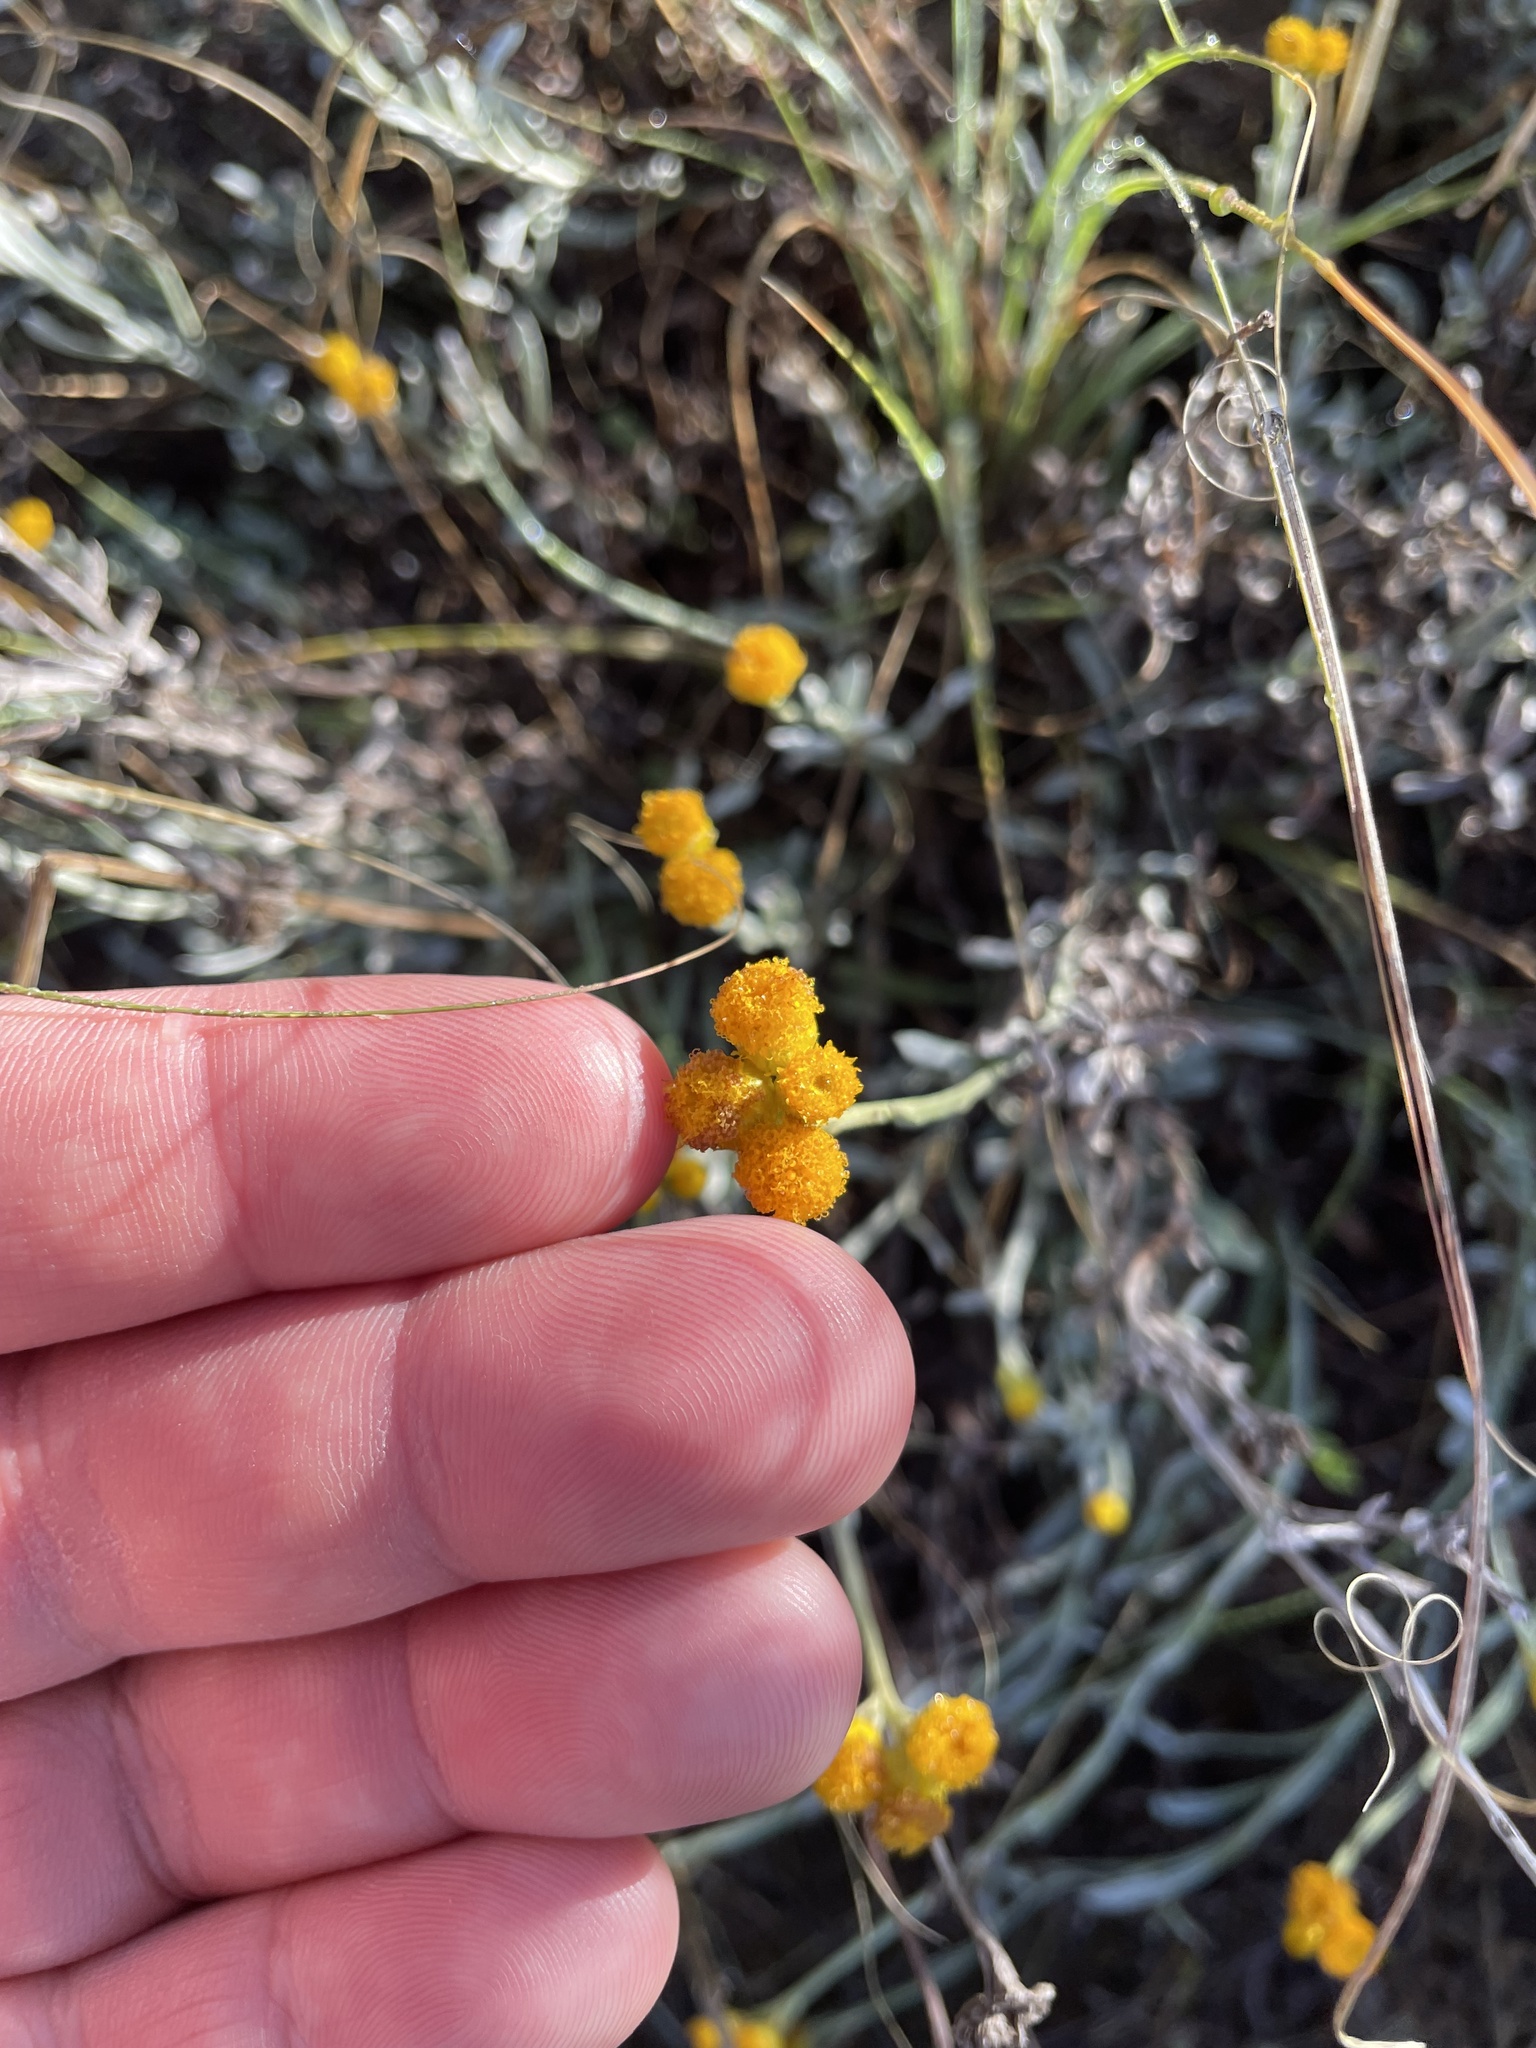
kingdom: Plantae
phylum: Tracheophyta
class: Magnoliopsida
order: Asterales
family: Asteraceae
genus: Chrysocephalum
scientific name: Chrysocephalum apiculatum
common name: Common everlasting
